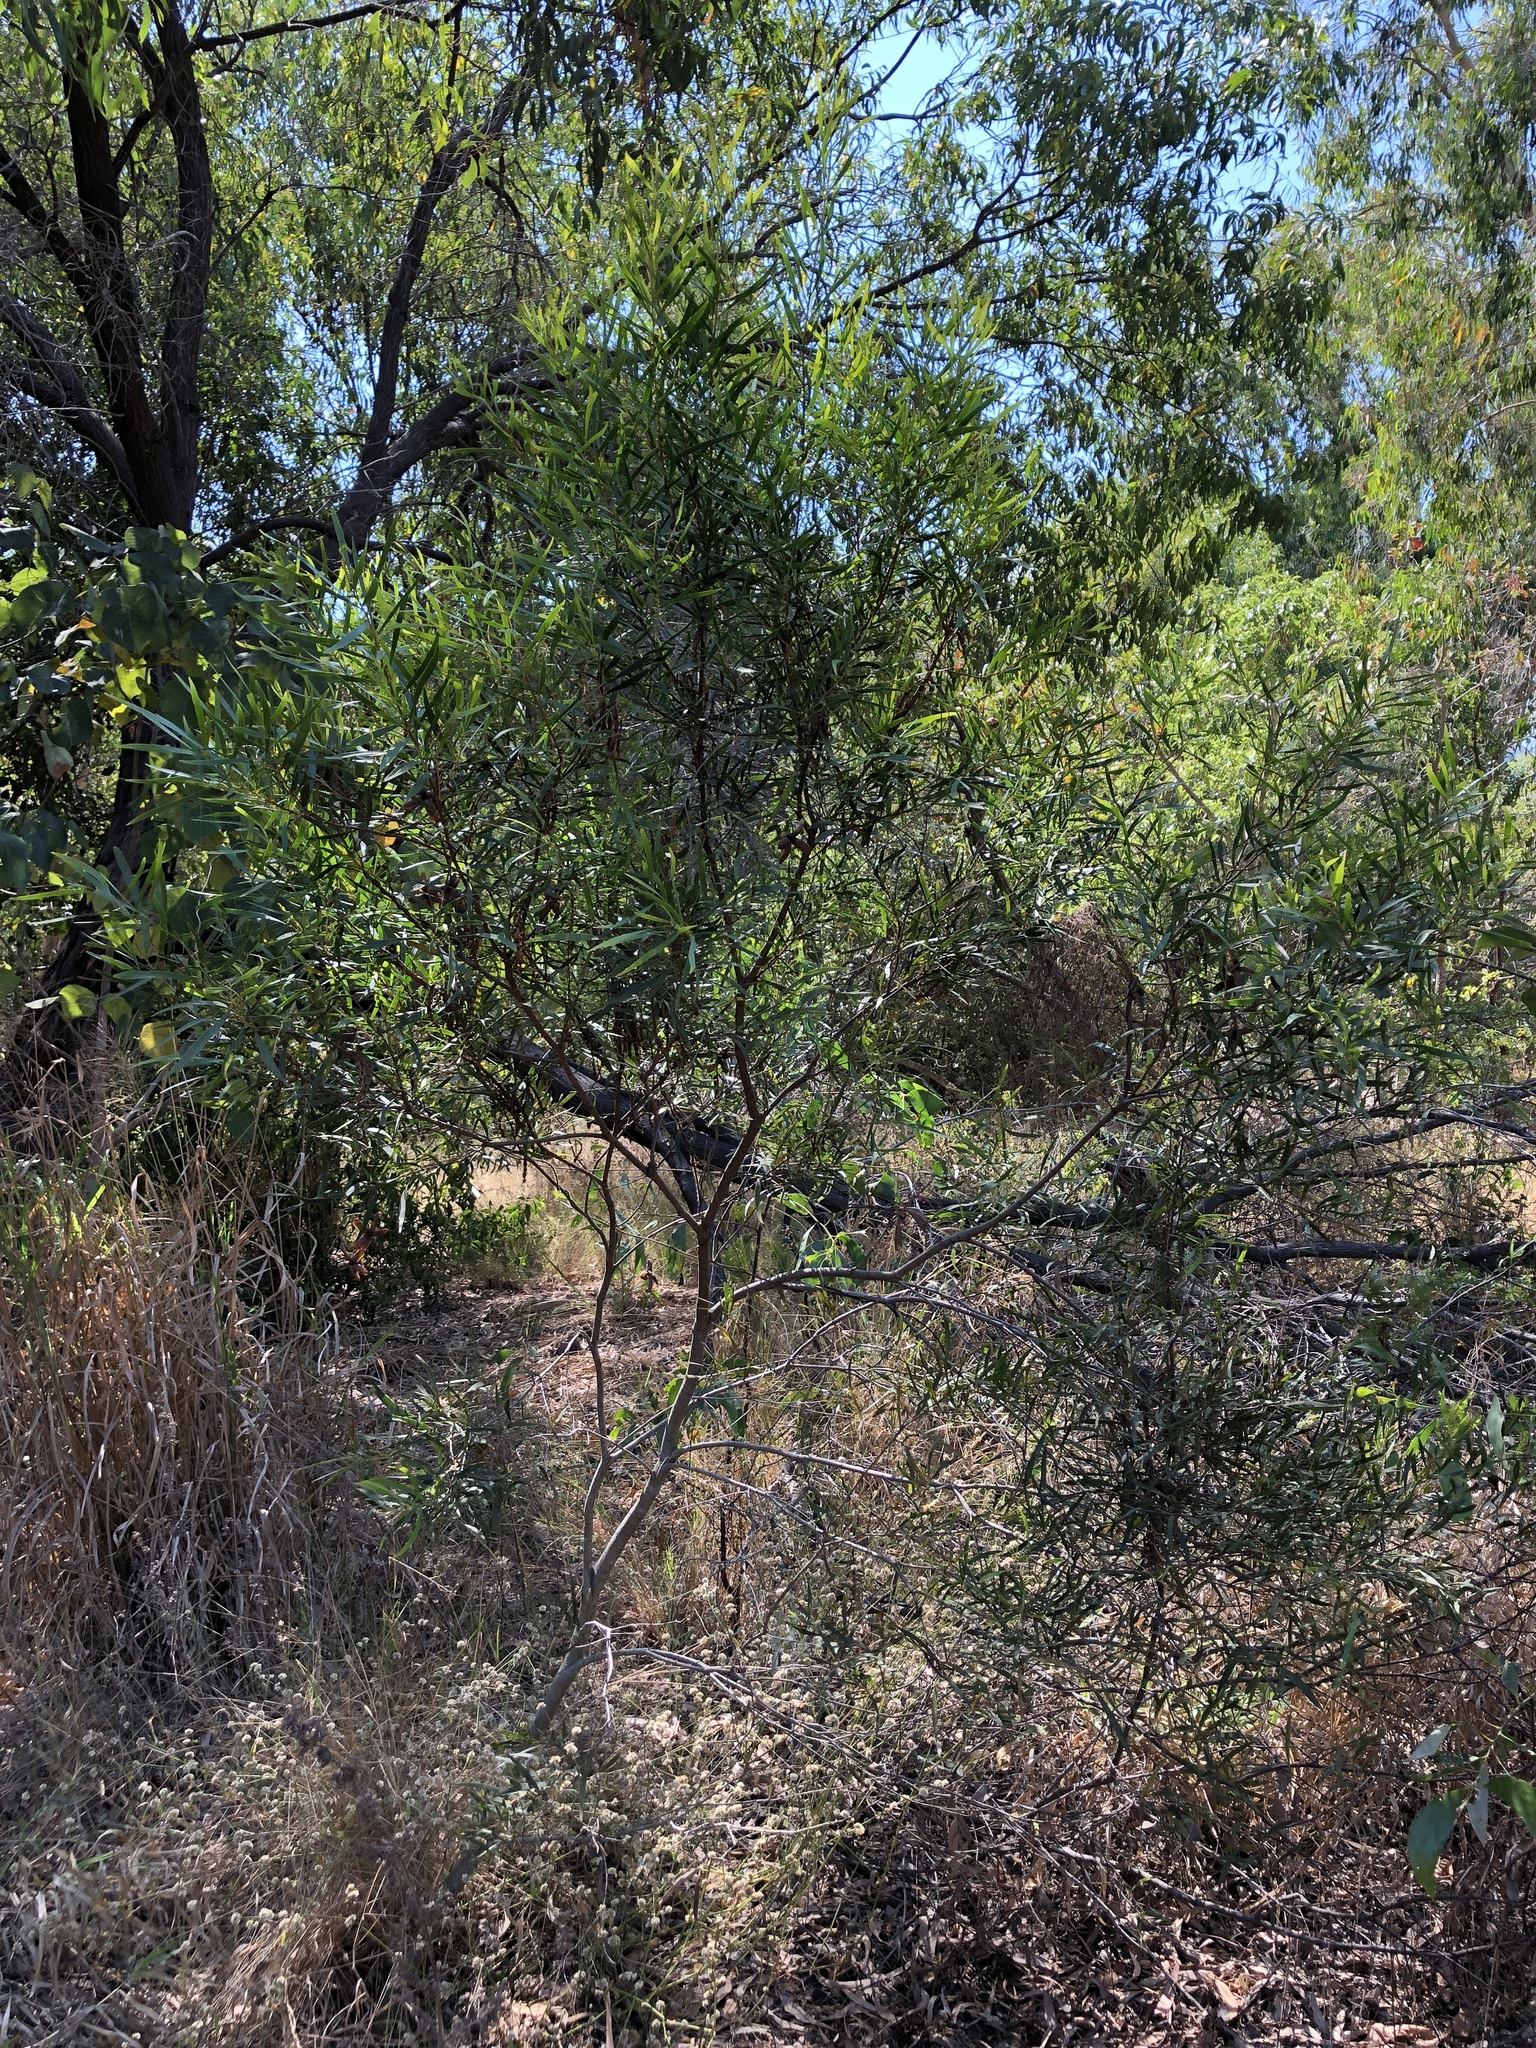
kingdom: Plantae
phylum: Tracheophyta
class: Magnoliopsida
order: Fabales
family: Fabaceae
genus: Acacia
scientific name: Acacia simsii
